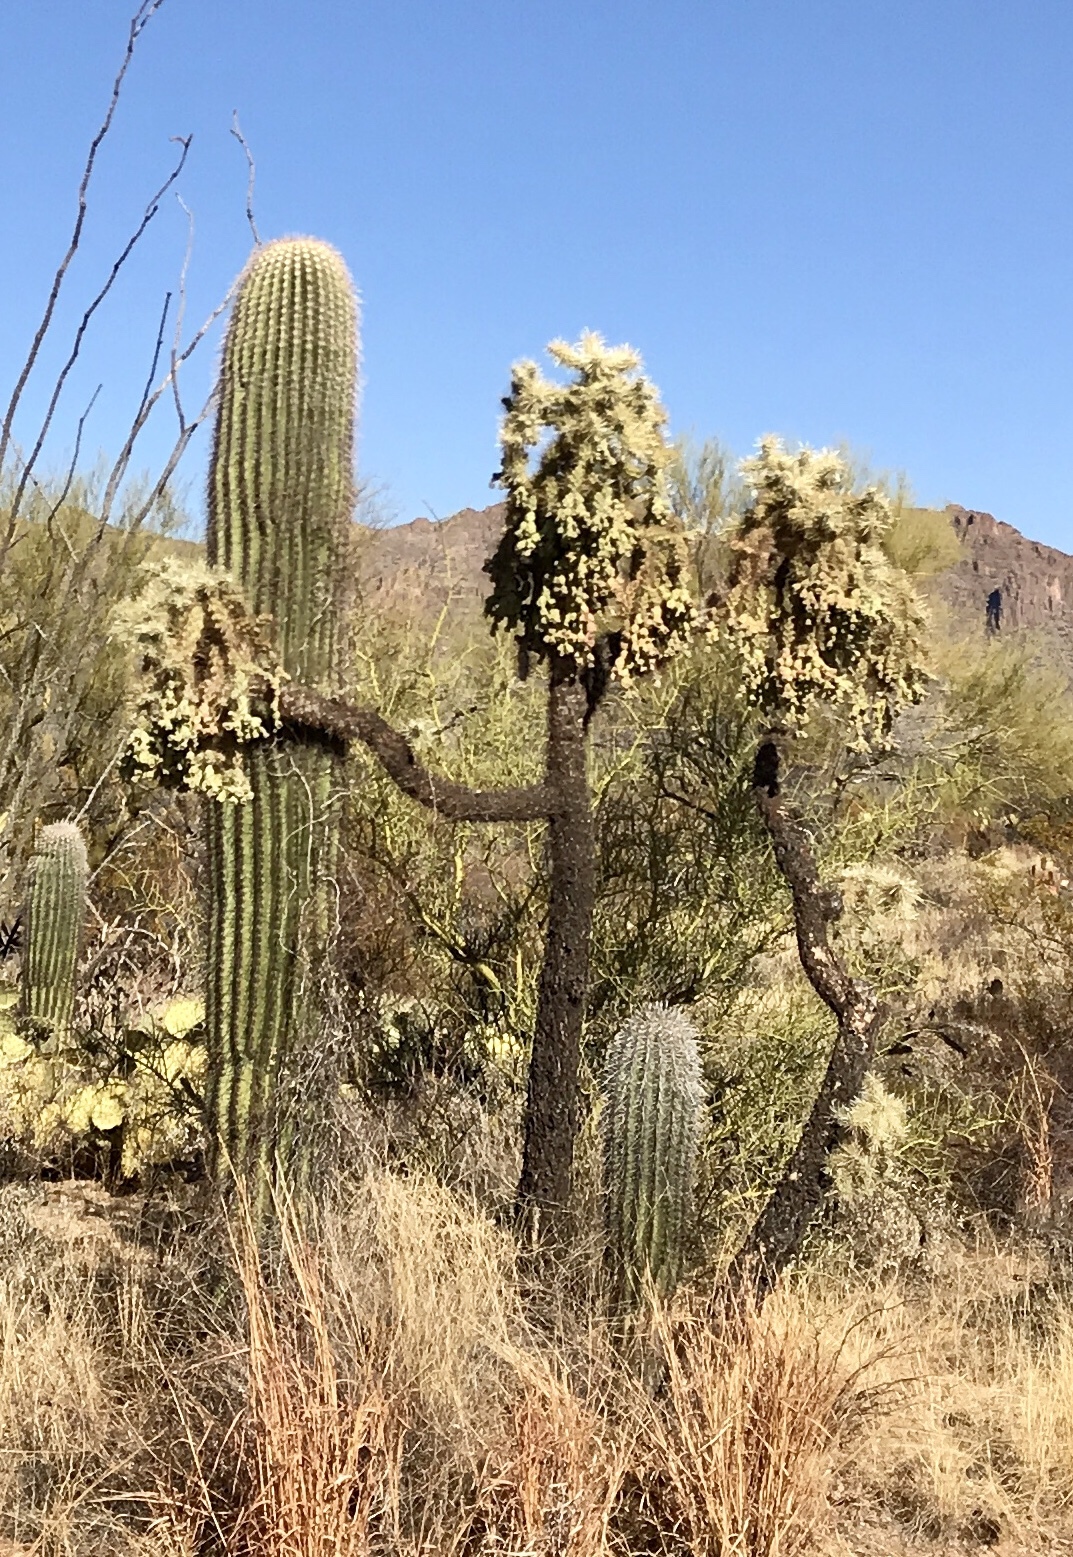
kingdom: Plantae
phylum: Tracheophyta
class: Magnoliopsida
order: Caryophyllales
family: Cactaceae
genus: Cylindropuntia
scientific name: Cylindropuntia fulgida
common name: Jumping cholla
